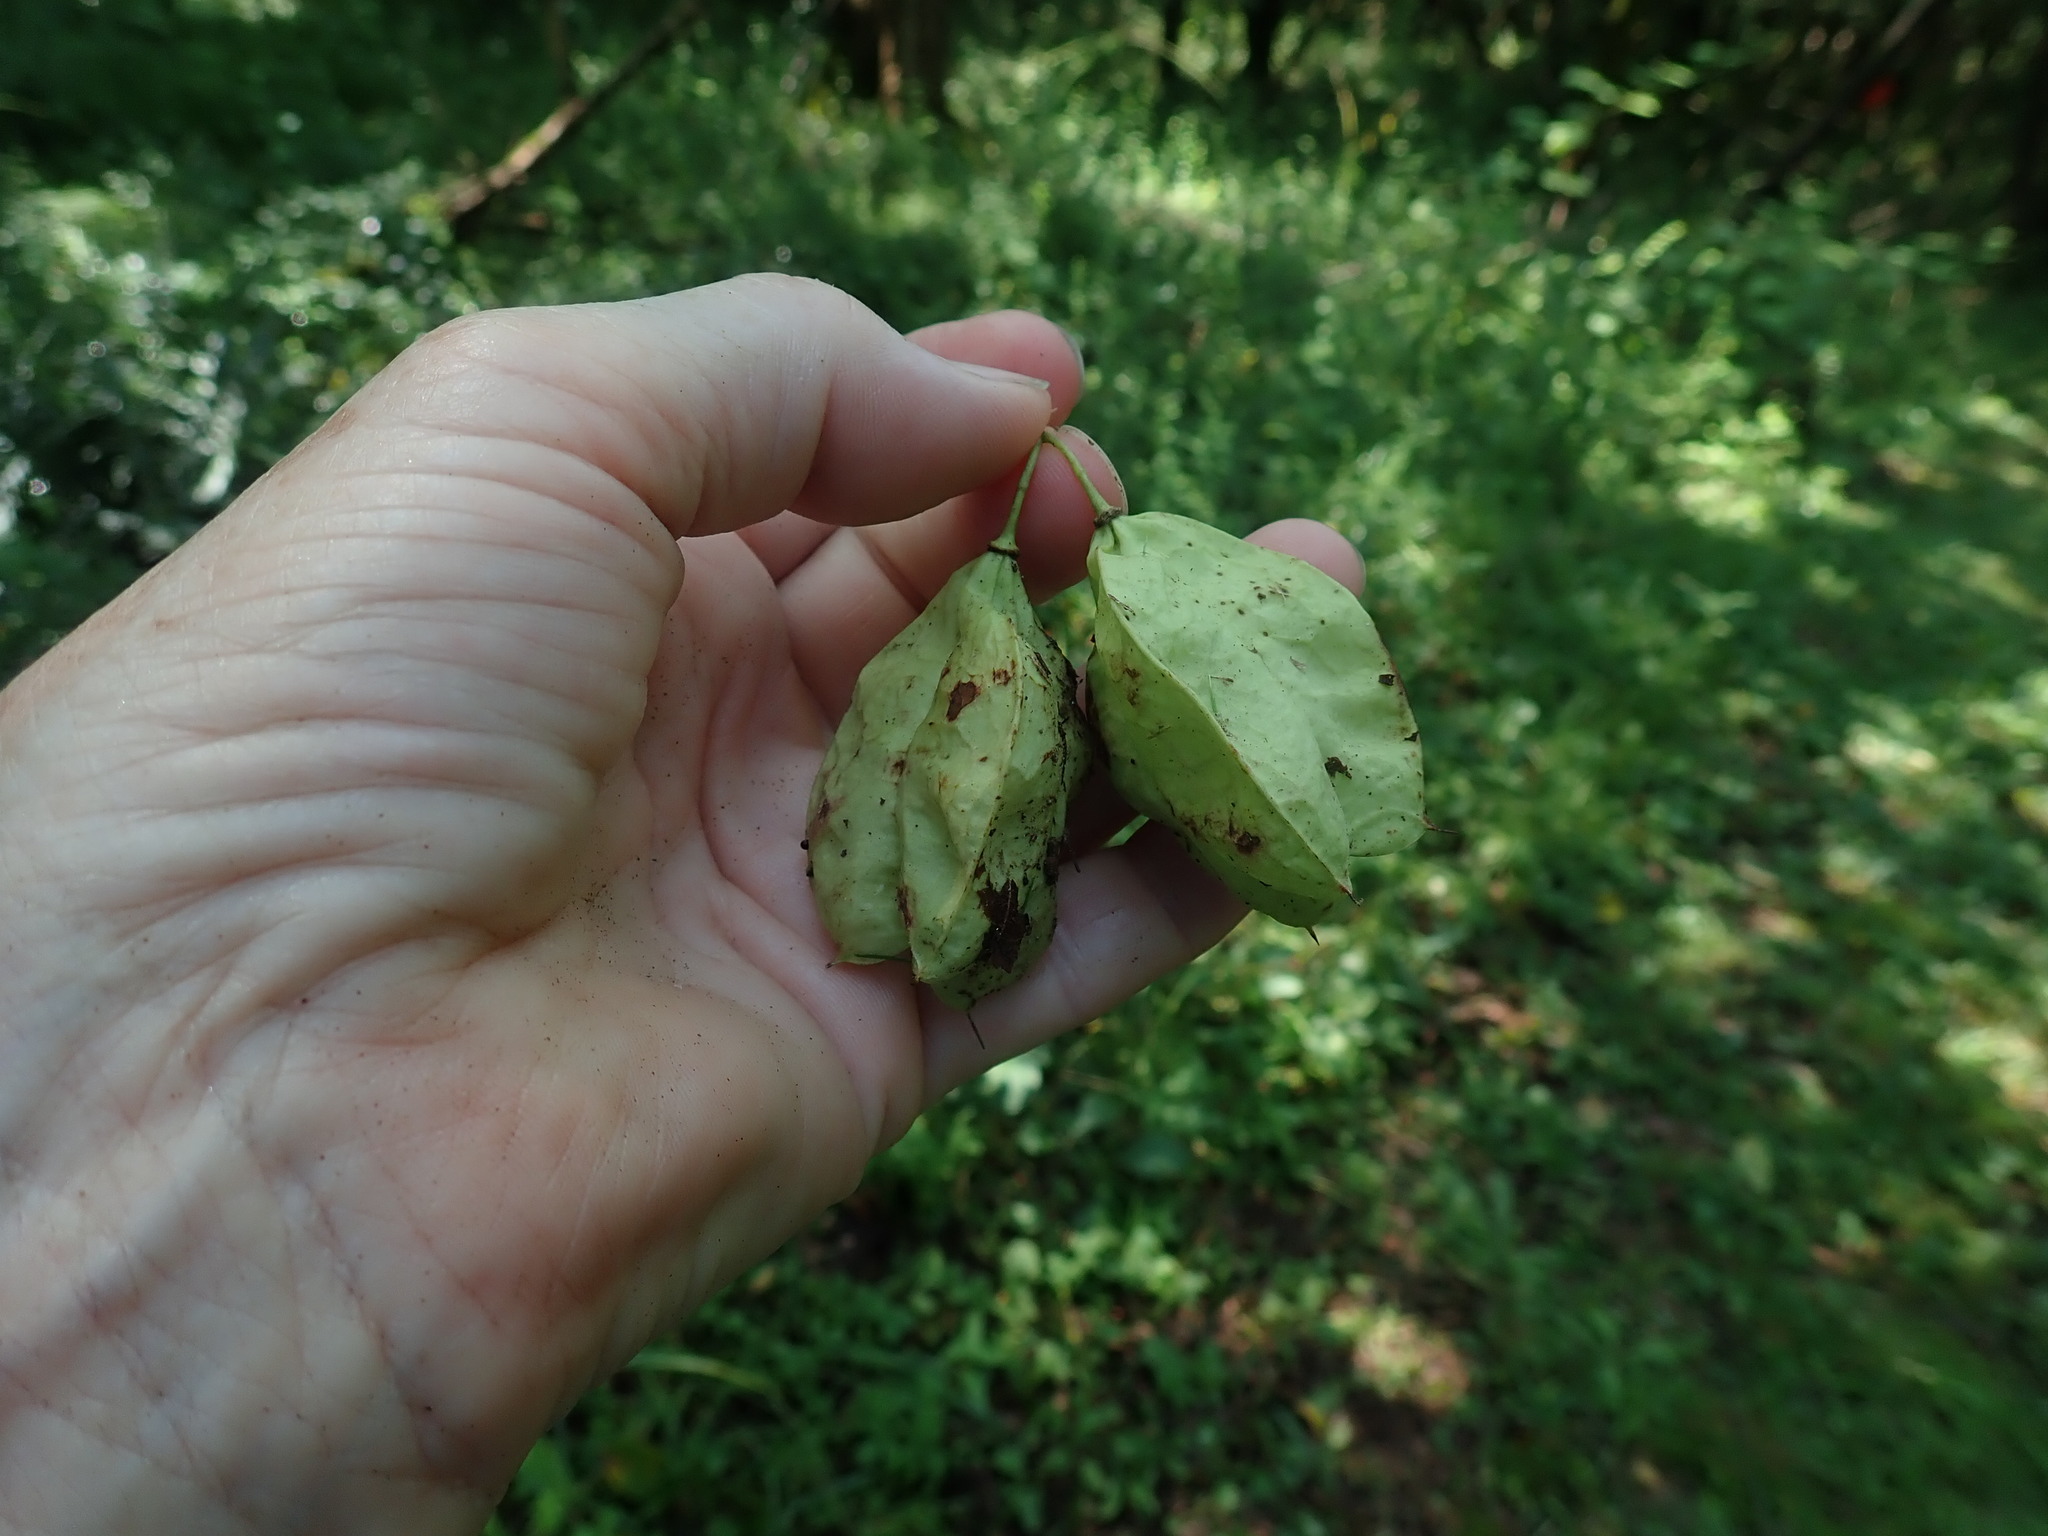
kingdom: Plantae
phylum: Tracheophyta
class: Magnoliopsida
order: Crossosomatales
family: Staphyleaceae
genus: Staphylea
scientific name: Staphylea trifolia
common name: American bladdernut
